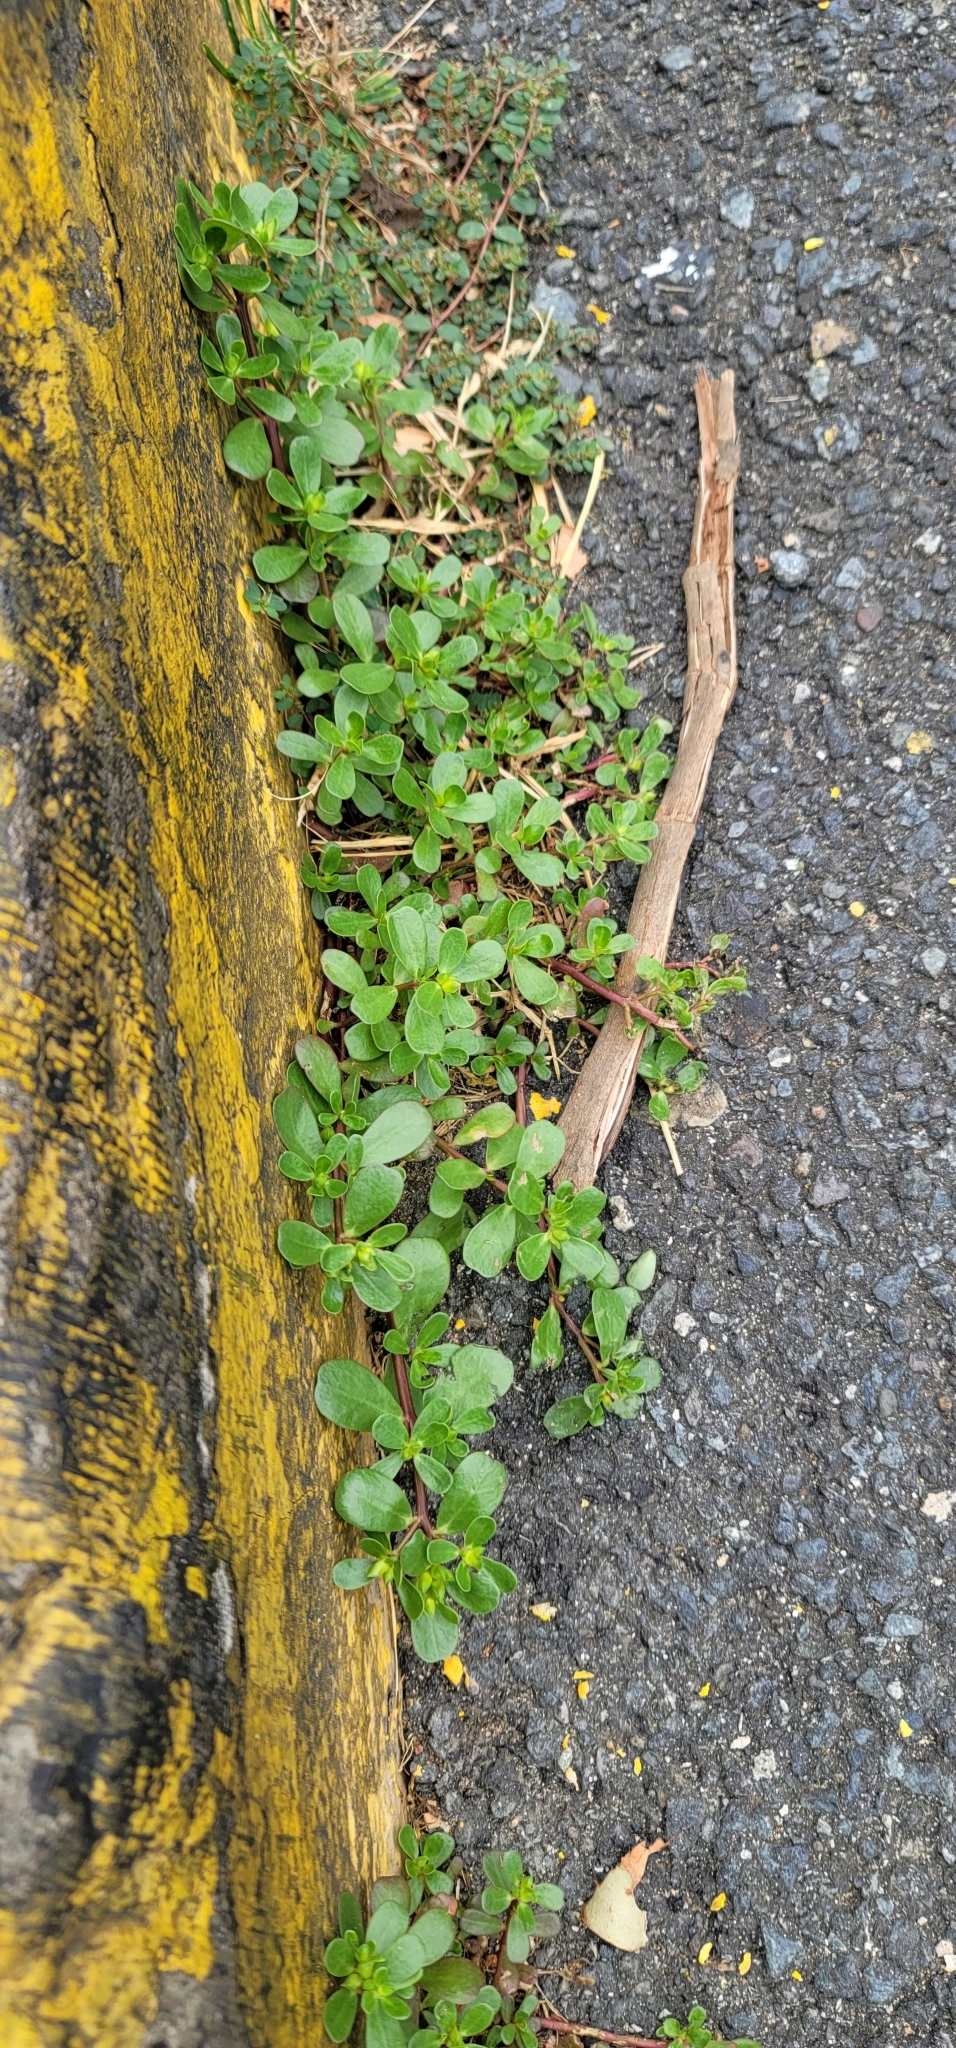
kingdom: Plantae
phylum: Tracheophyta
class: Magnoliopsida
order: Caryophyllales
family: Portulacaceae
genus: Portulaca
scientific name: Portulaca oleracea
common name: Common purslane
